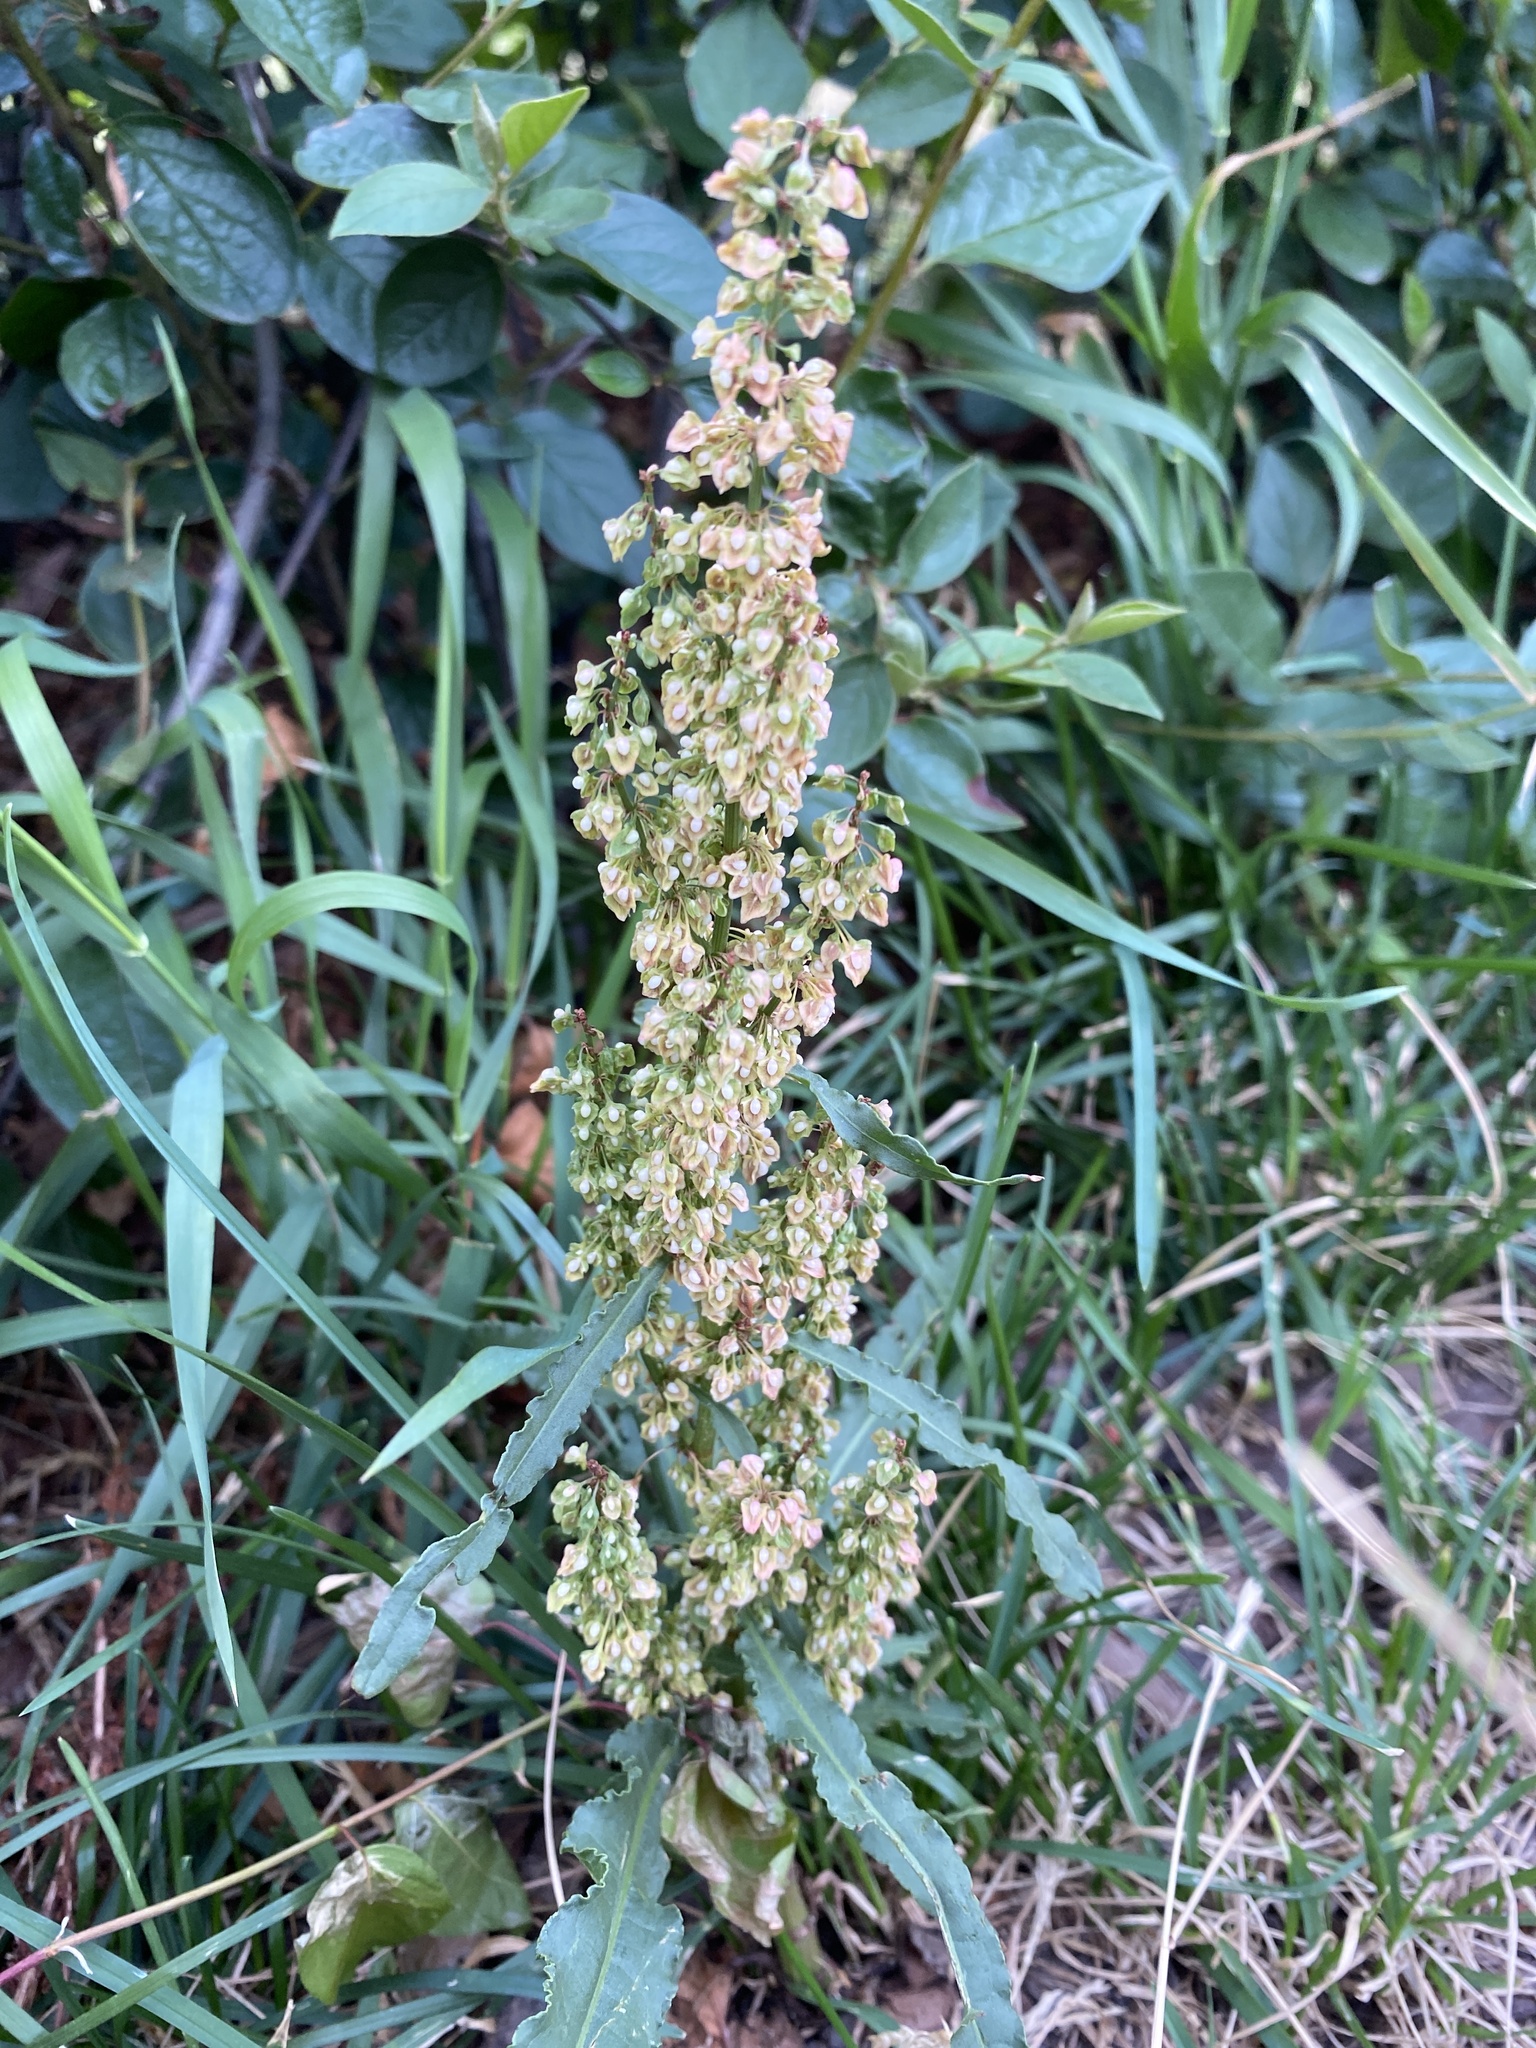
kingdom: Plantae
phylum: Tracheophyta
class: Magnoliopsida
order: Caryophyllales
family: Polygonaceae
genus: Rumex
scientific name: Rumex crispus
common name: Curled dock
